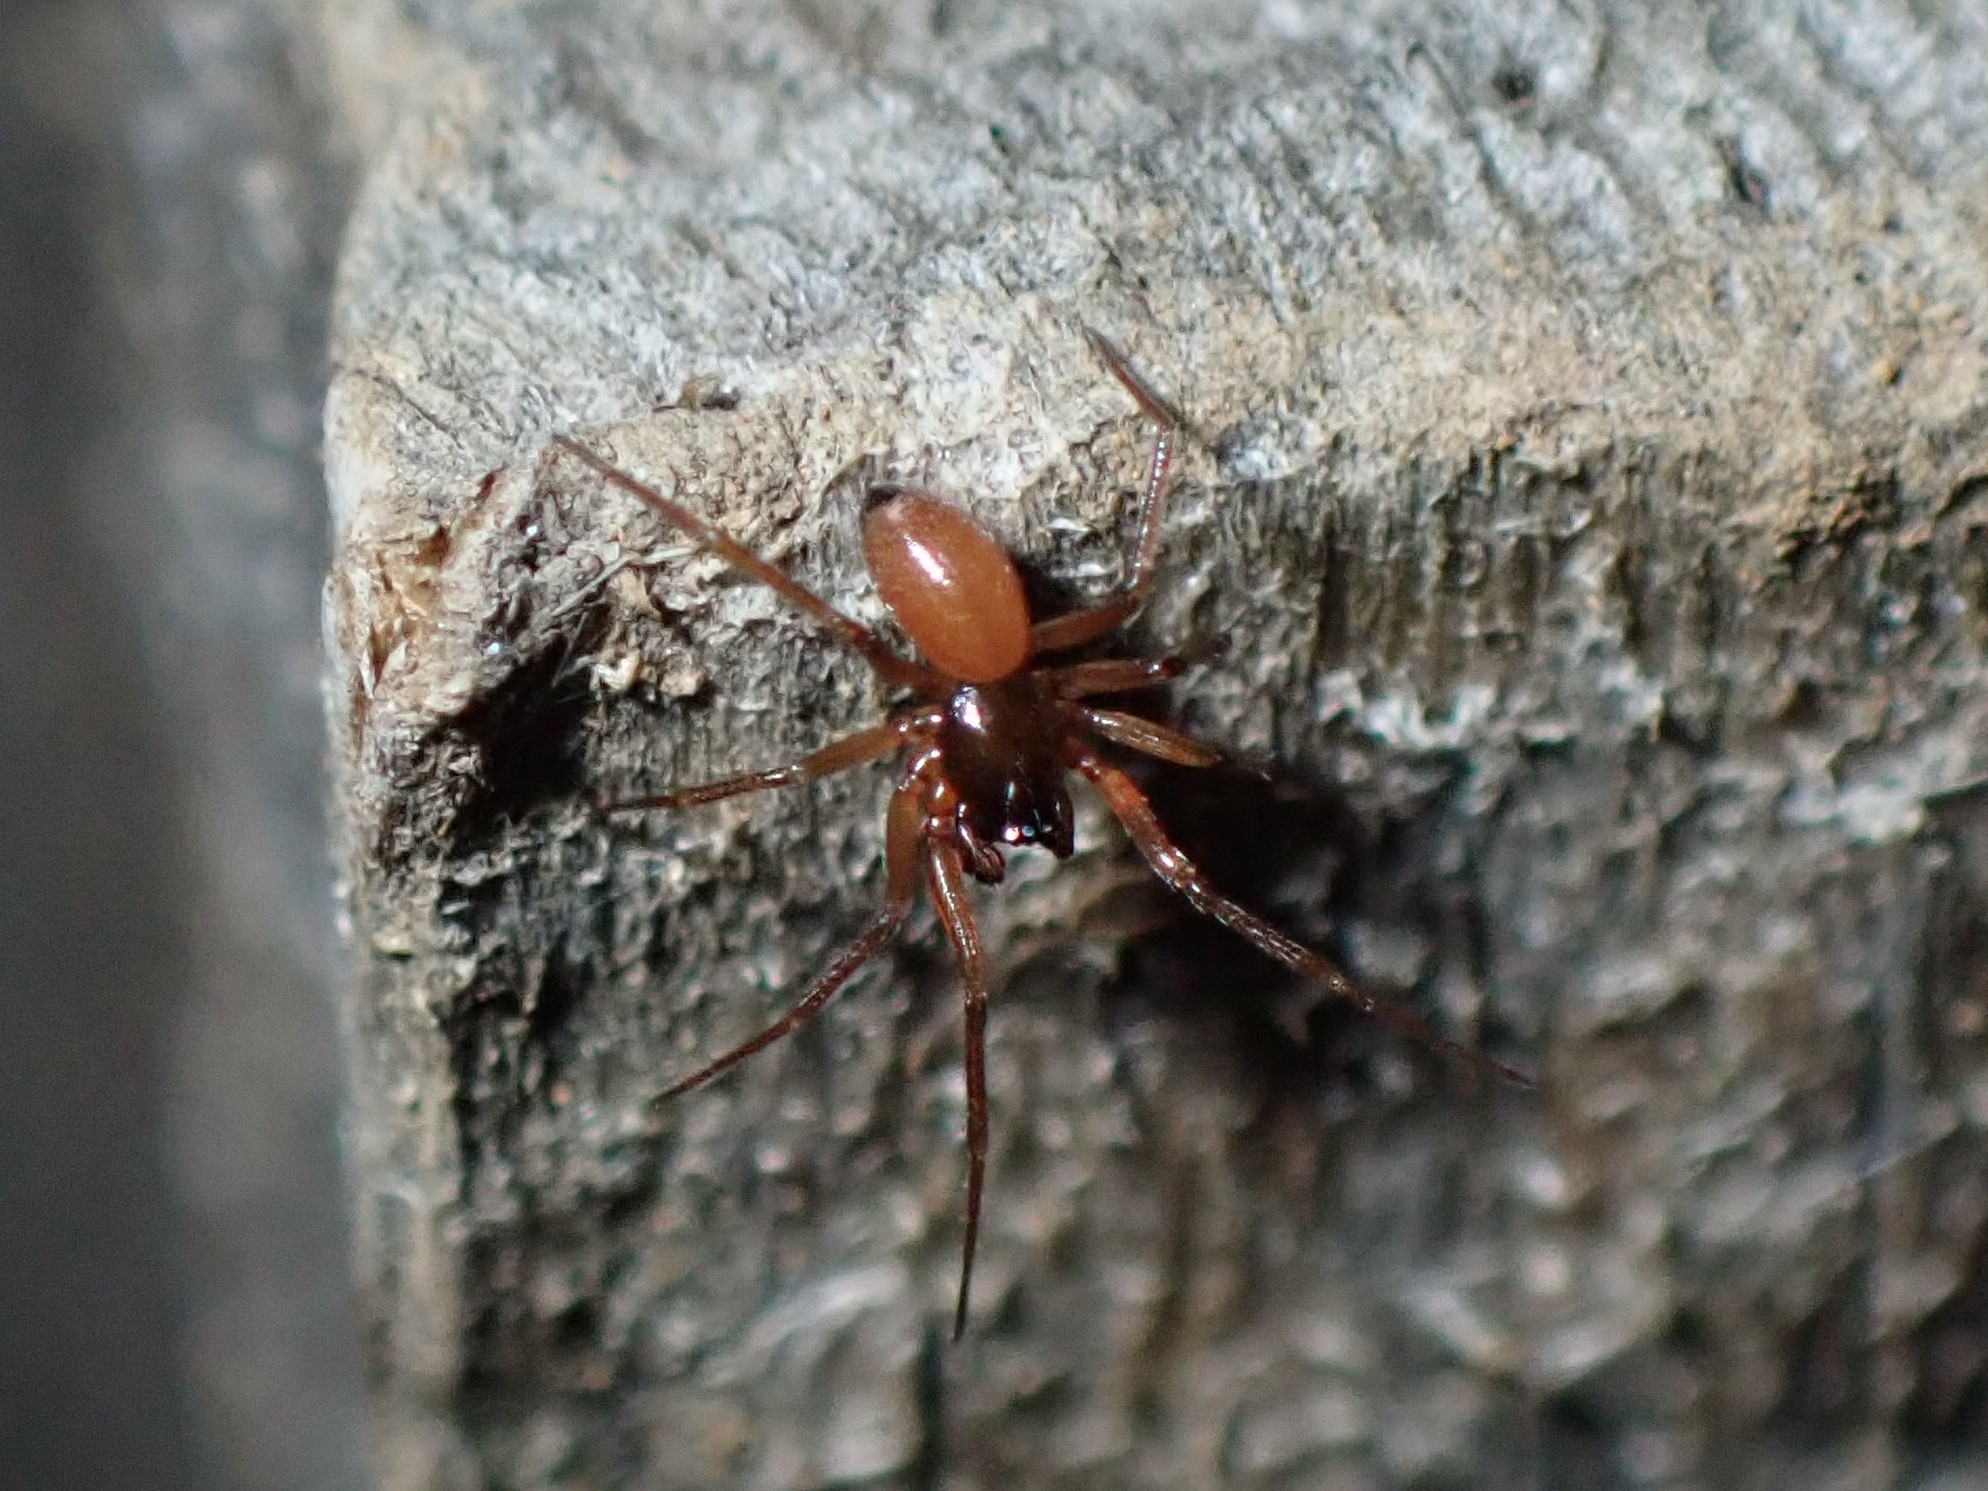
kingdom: Animalia
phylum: Arthropoda
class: Arachnida
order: Araneae
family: Linyphiidae
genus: Ostearius
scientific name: Ostearius melanopygius
